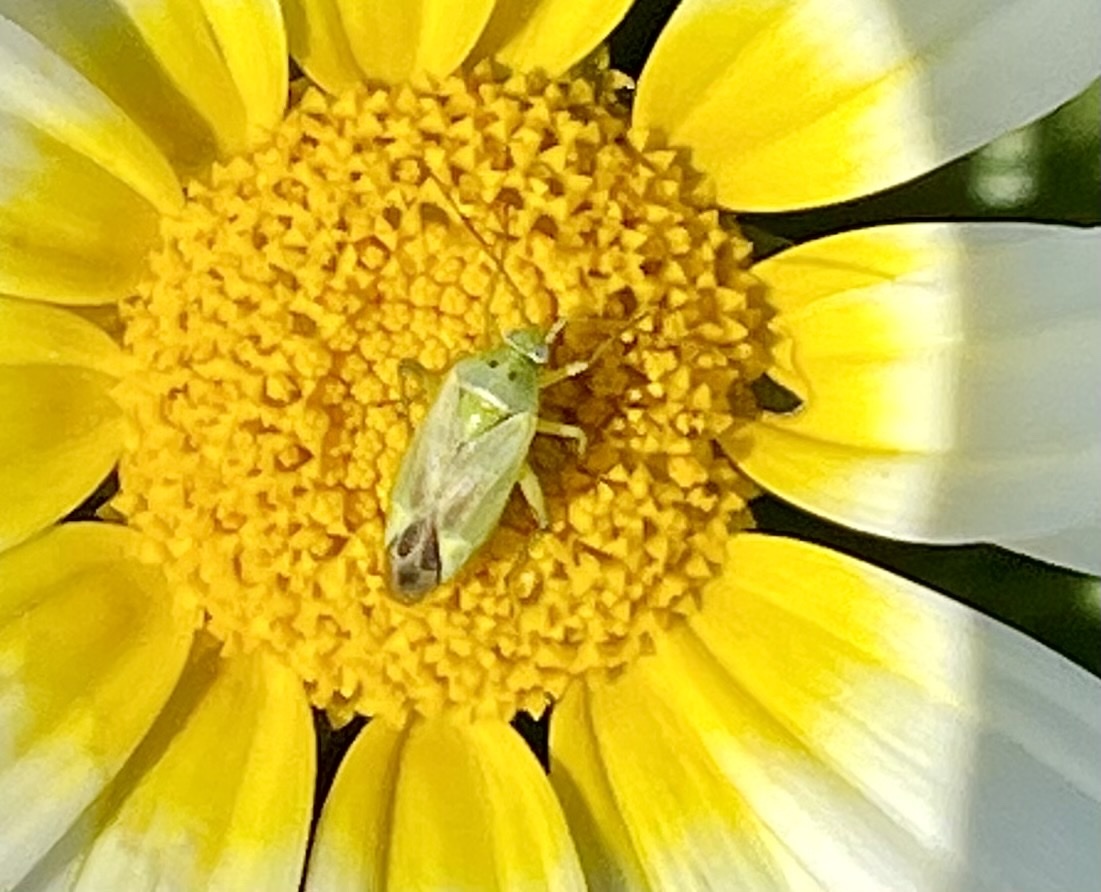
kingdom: Animalia
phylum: Arthropoda
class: Insecta
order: Hemiptera
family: Miridae
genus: Closterotomus
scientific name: Closterotomus norvegicus
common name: Plant bug
